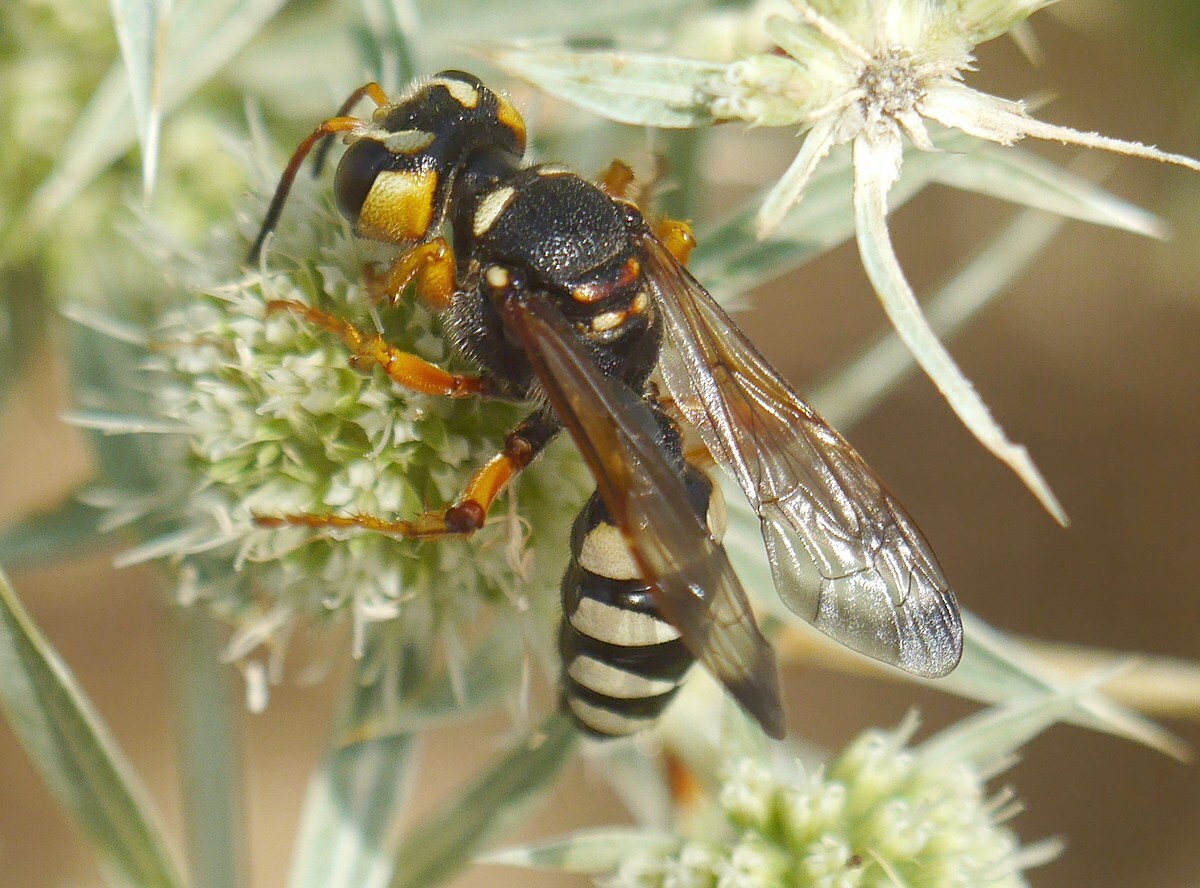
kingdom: Animalia
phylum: Arthropoda
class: Insecta
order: Hymenoptera
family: Crabronidae
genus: Cerceris
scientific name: Cerceris tuberculata
